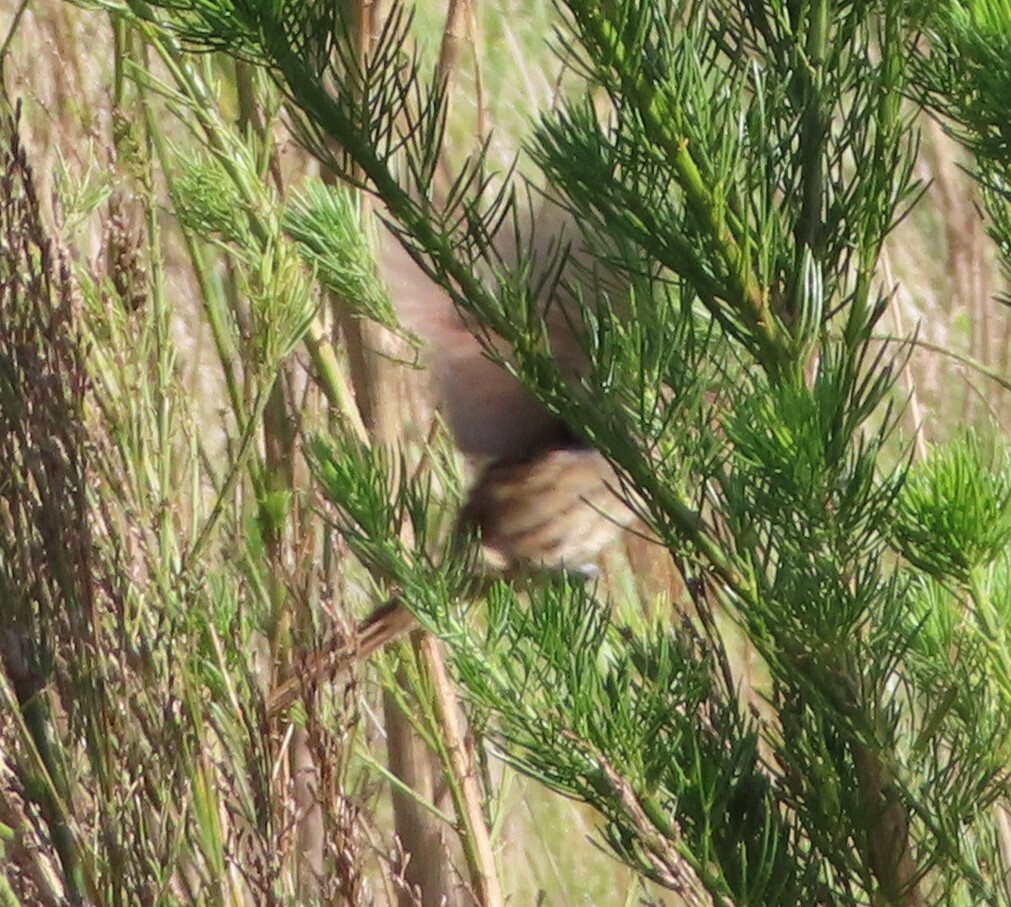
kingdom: Animalia
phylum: Chordata
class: Aves
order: Passeriformes
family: Macrosphenidae
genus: Sphenoeacus
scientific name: Sphenoeacus afer
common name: Cape grassbird
